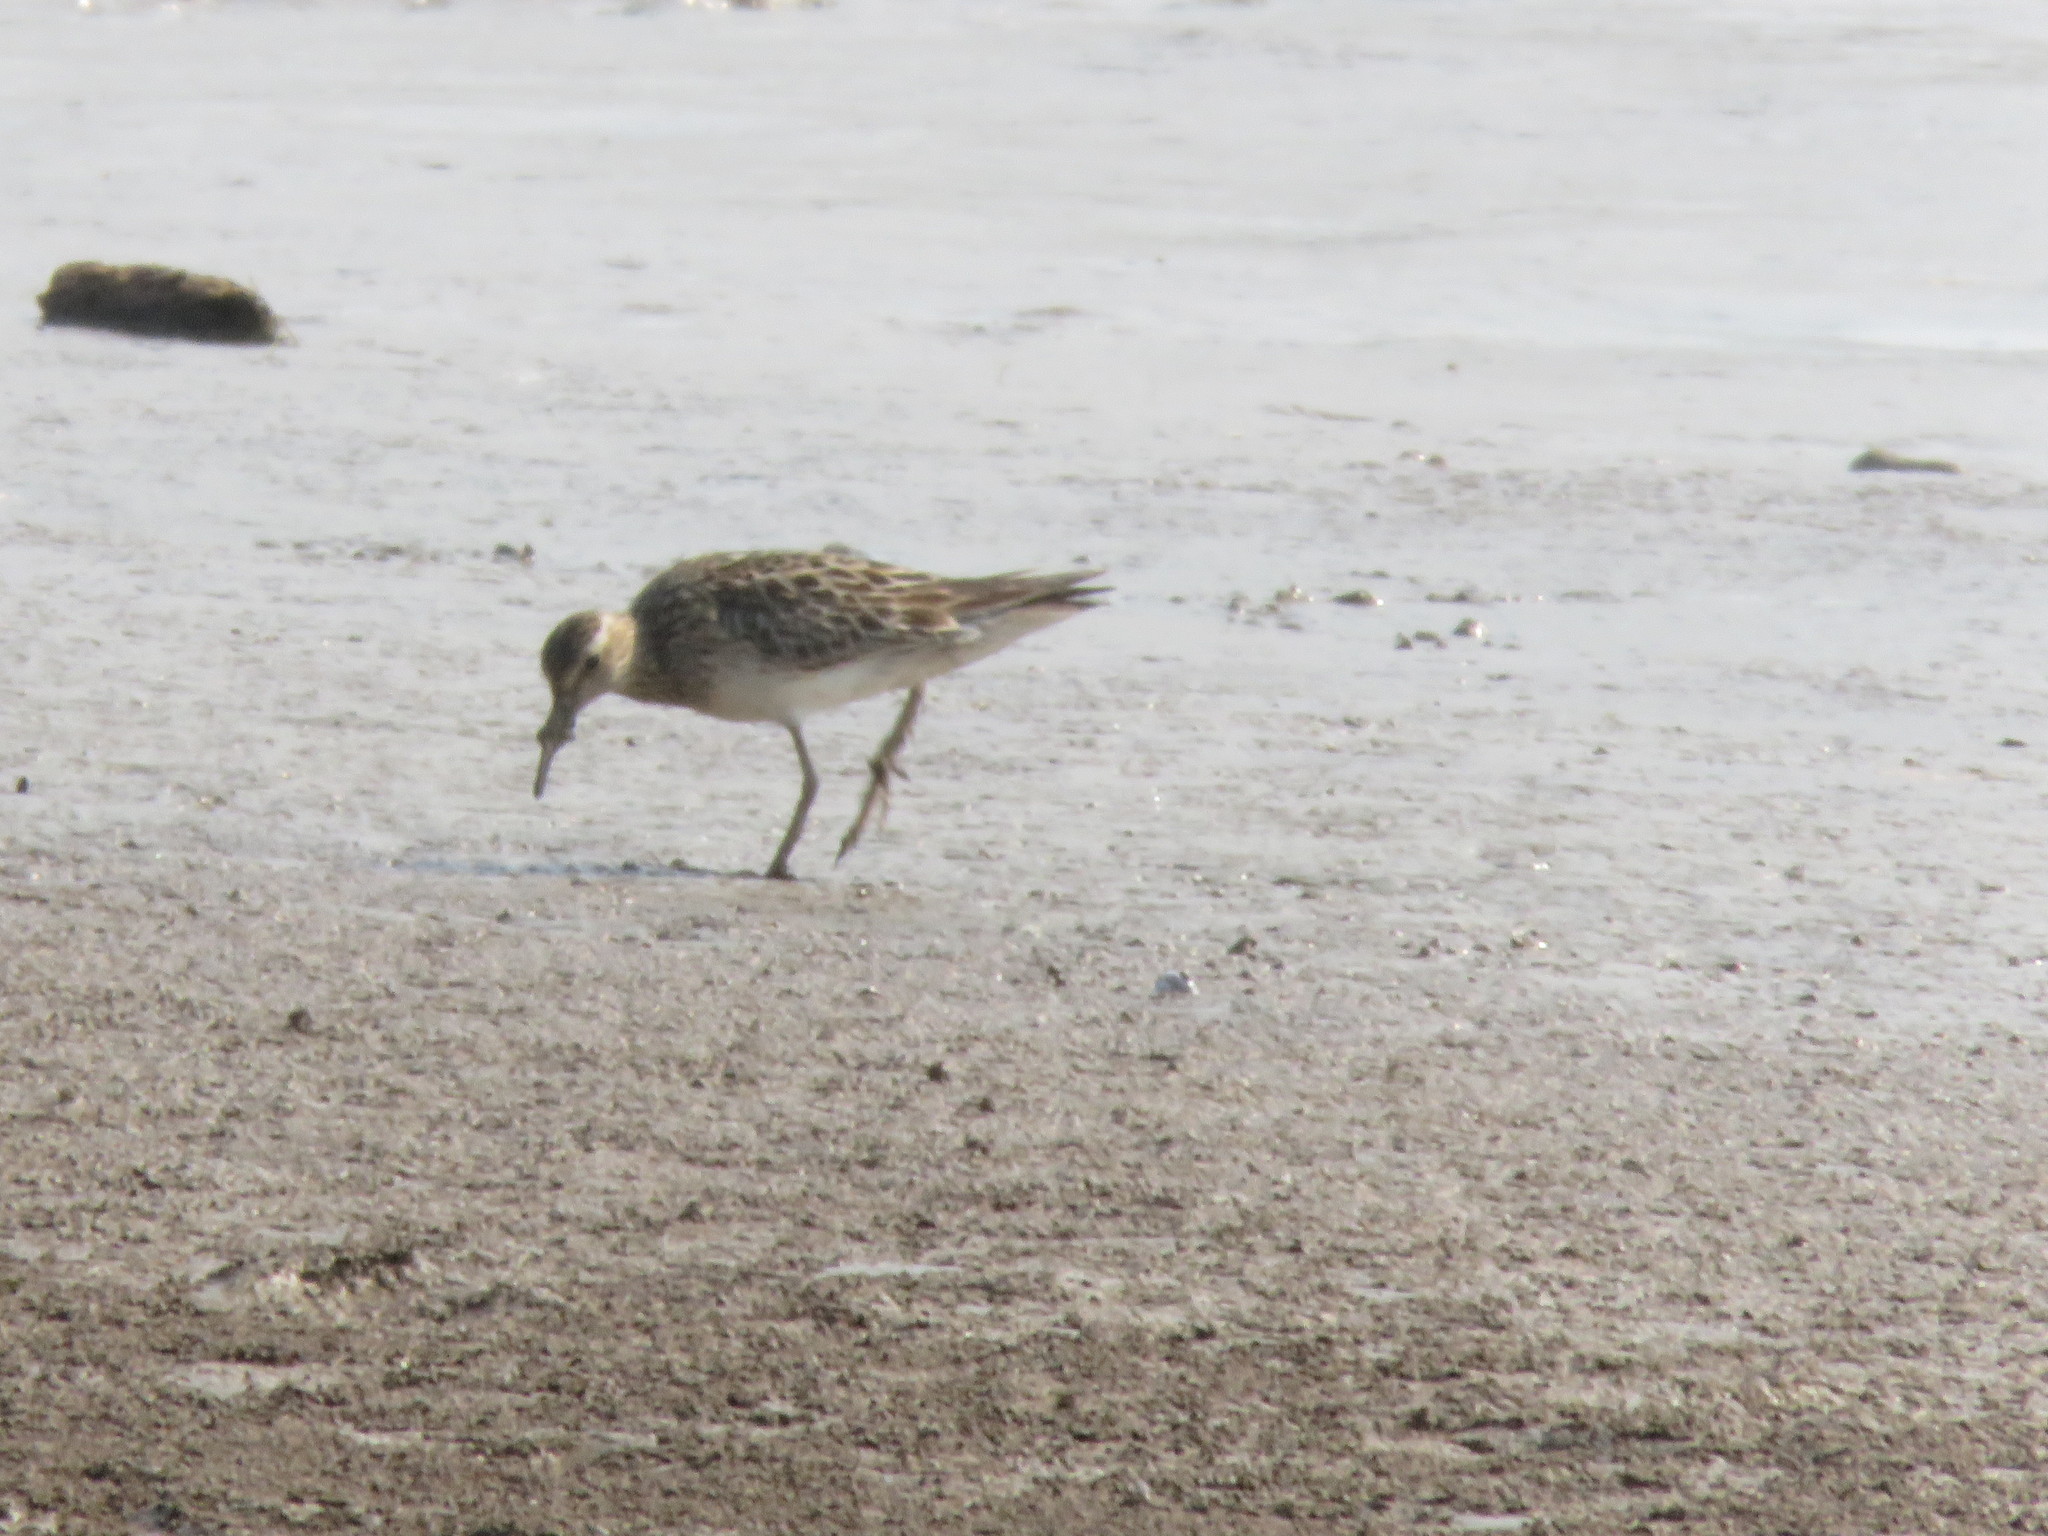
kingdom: Animalia
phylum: Chordata
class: Aves
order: Charadriiformes
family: Scolopacidae
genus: Calidris
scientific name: Calidris melanotos
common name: Pectoral sandpiper
